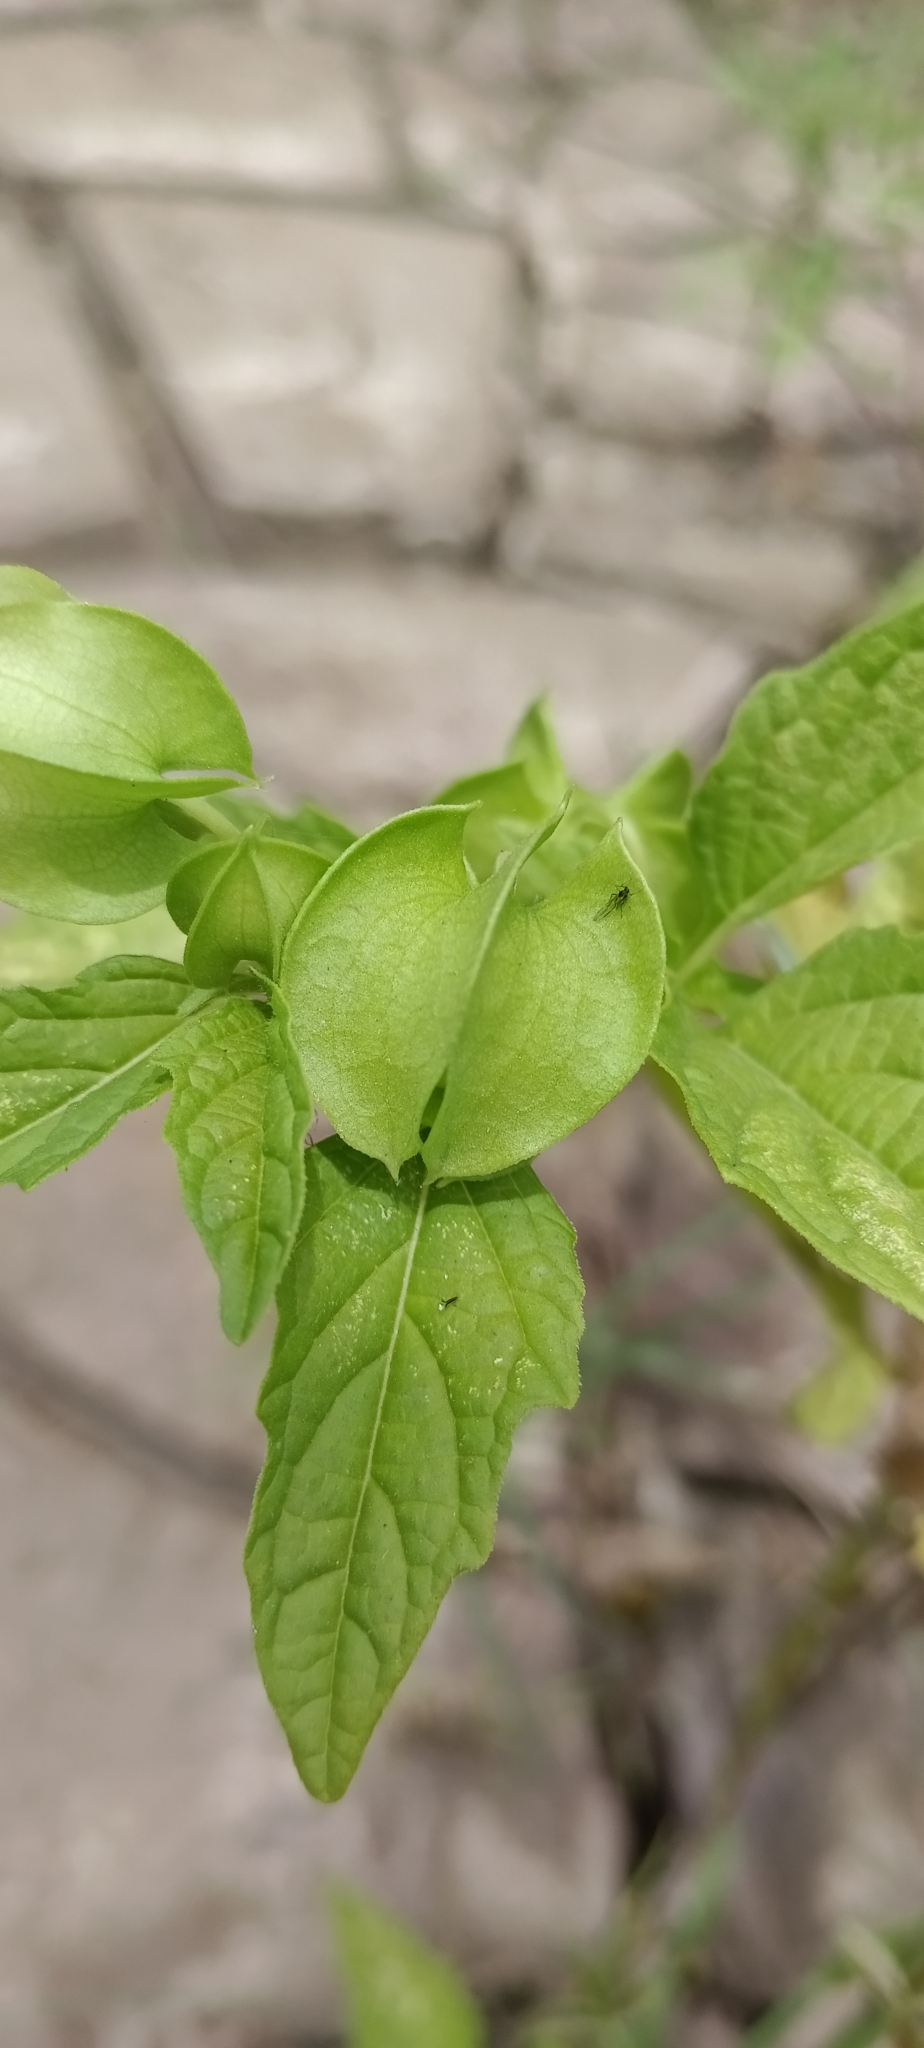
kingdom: Plantae
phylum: Tracheophyta
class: Magnoliopsida
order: Solanales
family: Solanaceae
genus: Nicandra
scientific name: Nicandra physalodes
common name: Apple-of-peru
